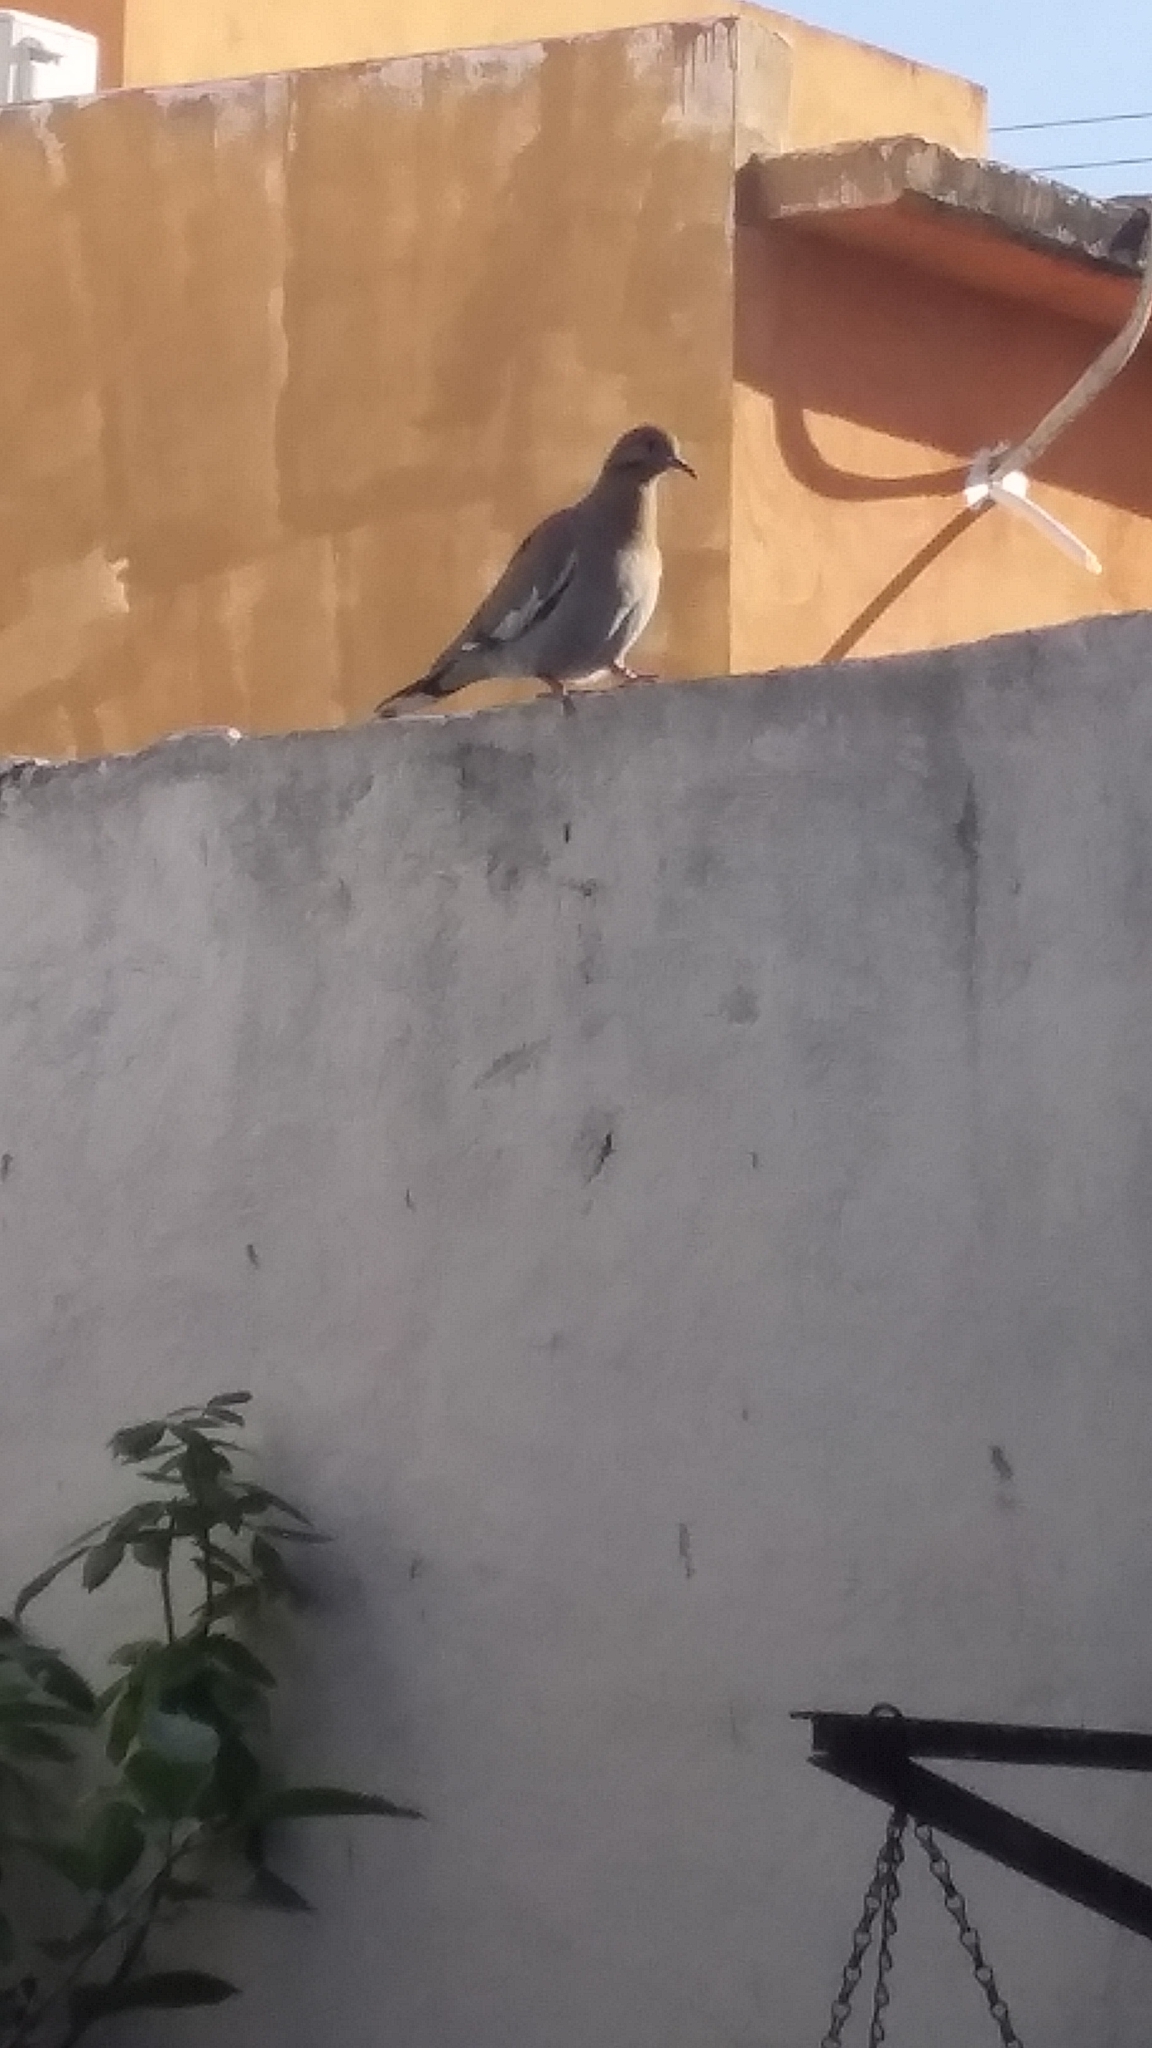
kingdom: Animalia
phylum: Chordata
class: Aves
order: Columbiformes
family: Columbidae
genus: Zenaida
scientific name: Zenaida asiatica
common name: White-winged dove
